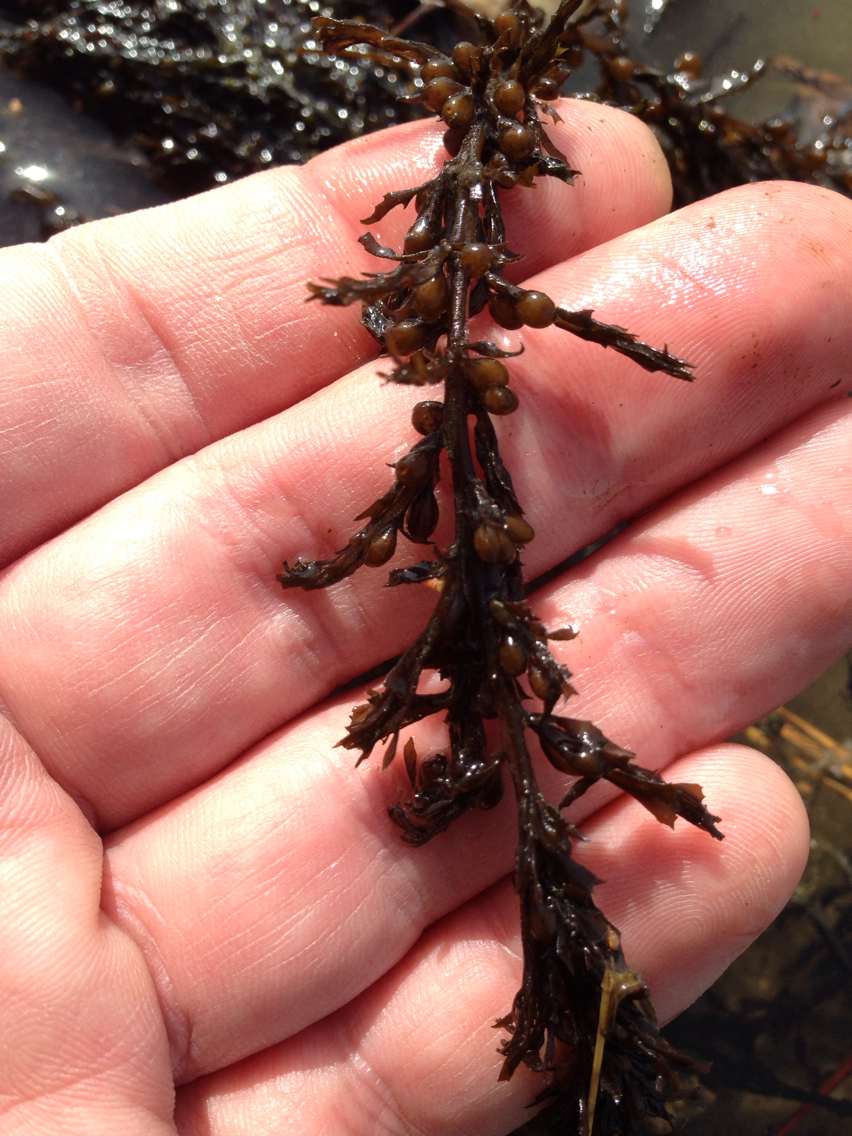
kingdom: Chromista
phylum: Ochrophyta
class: Phaeophyceae
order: Fucales
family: Sargassaceae
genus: Sargassum
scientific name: Sargassum muticum
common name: Japweed
